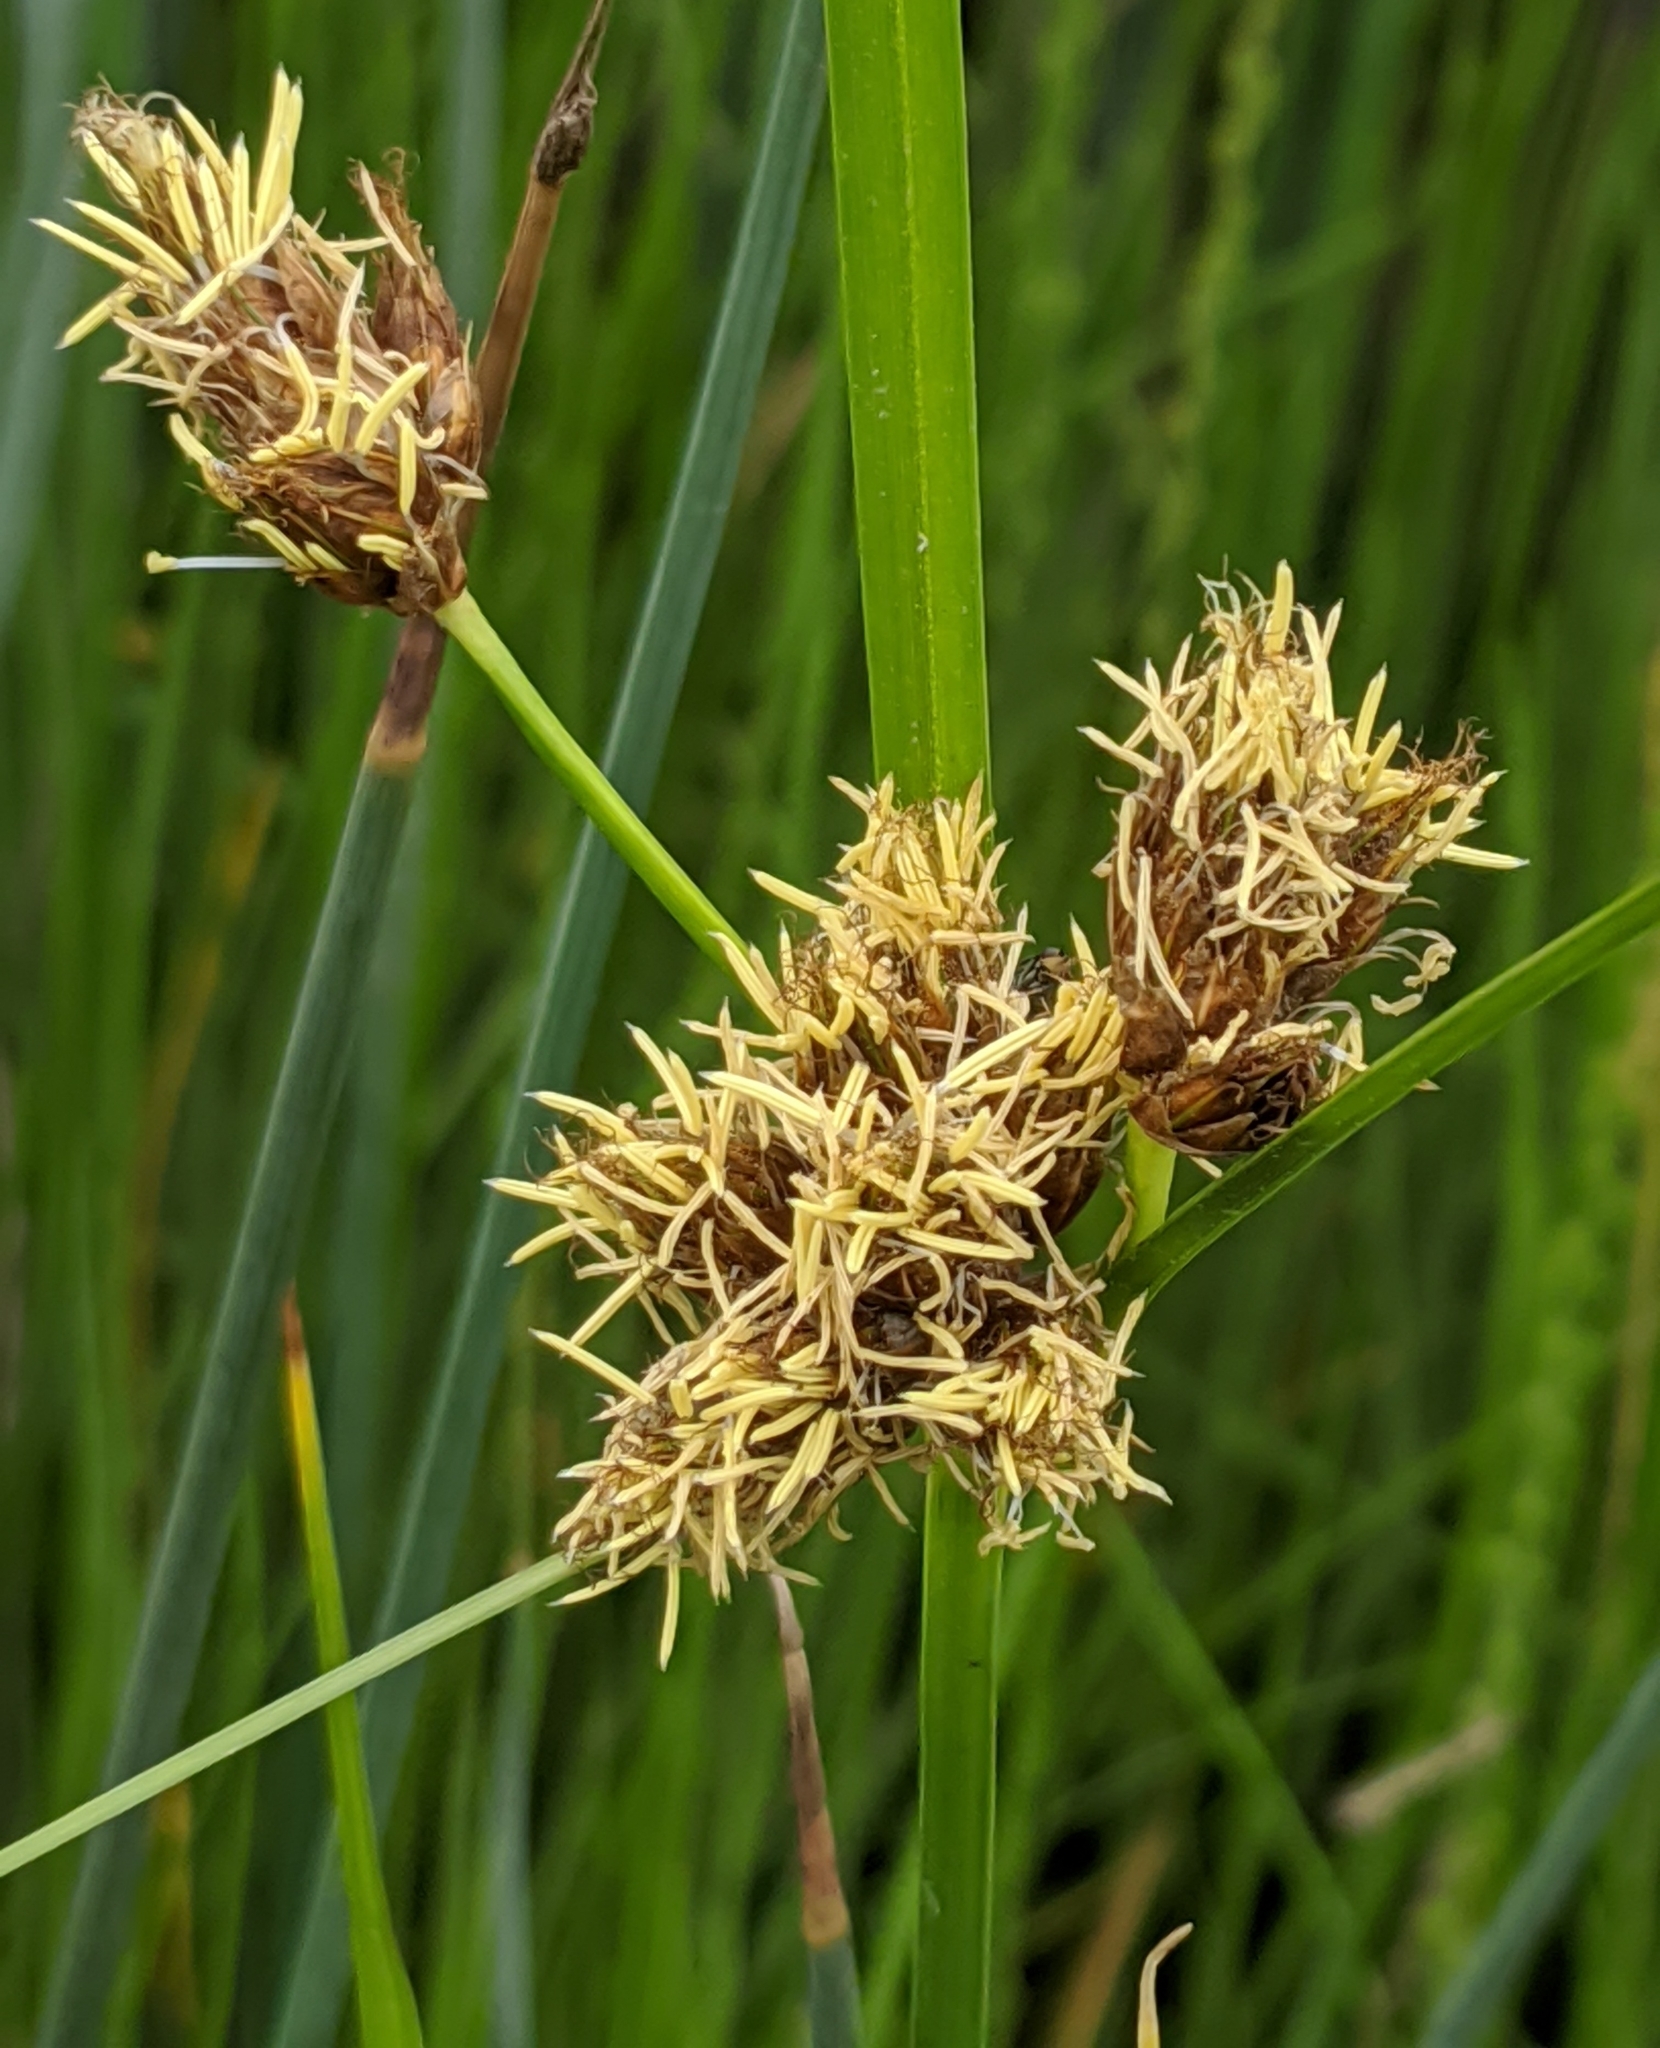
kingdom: Plantae
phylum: Tracheophyta
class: Liliopsida
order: Poales
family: Cyperaceae
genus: Bolboschoenus
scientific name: Bolboschoenus maritimus
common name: Sea club-rush
